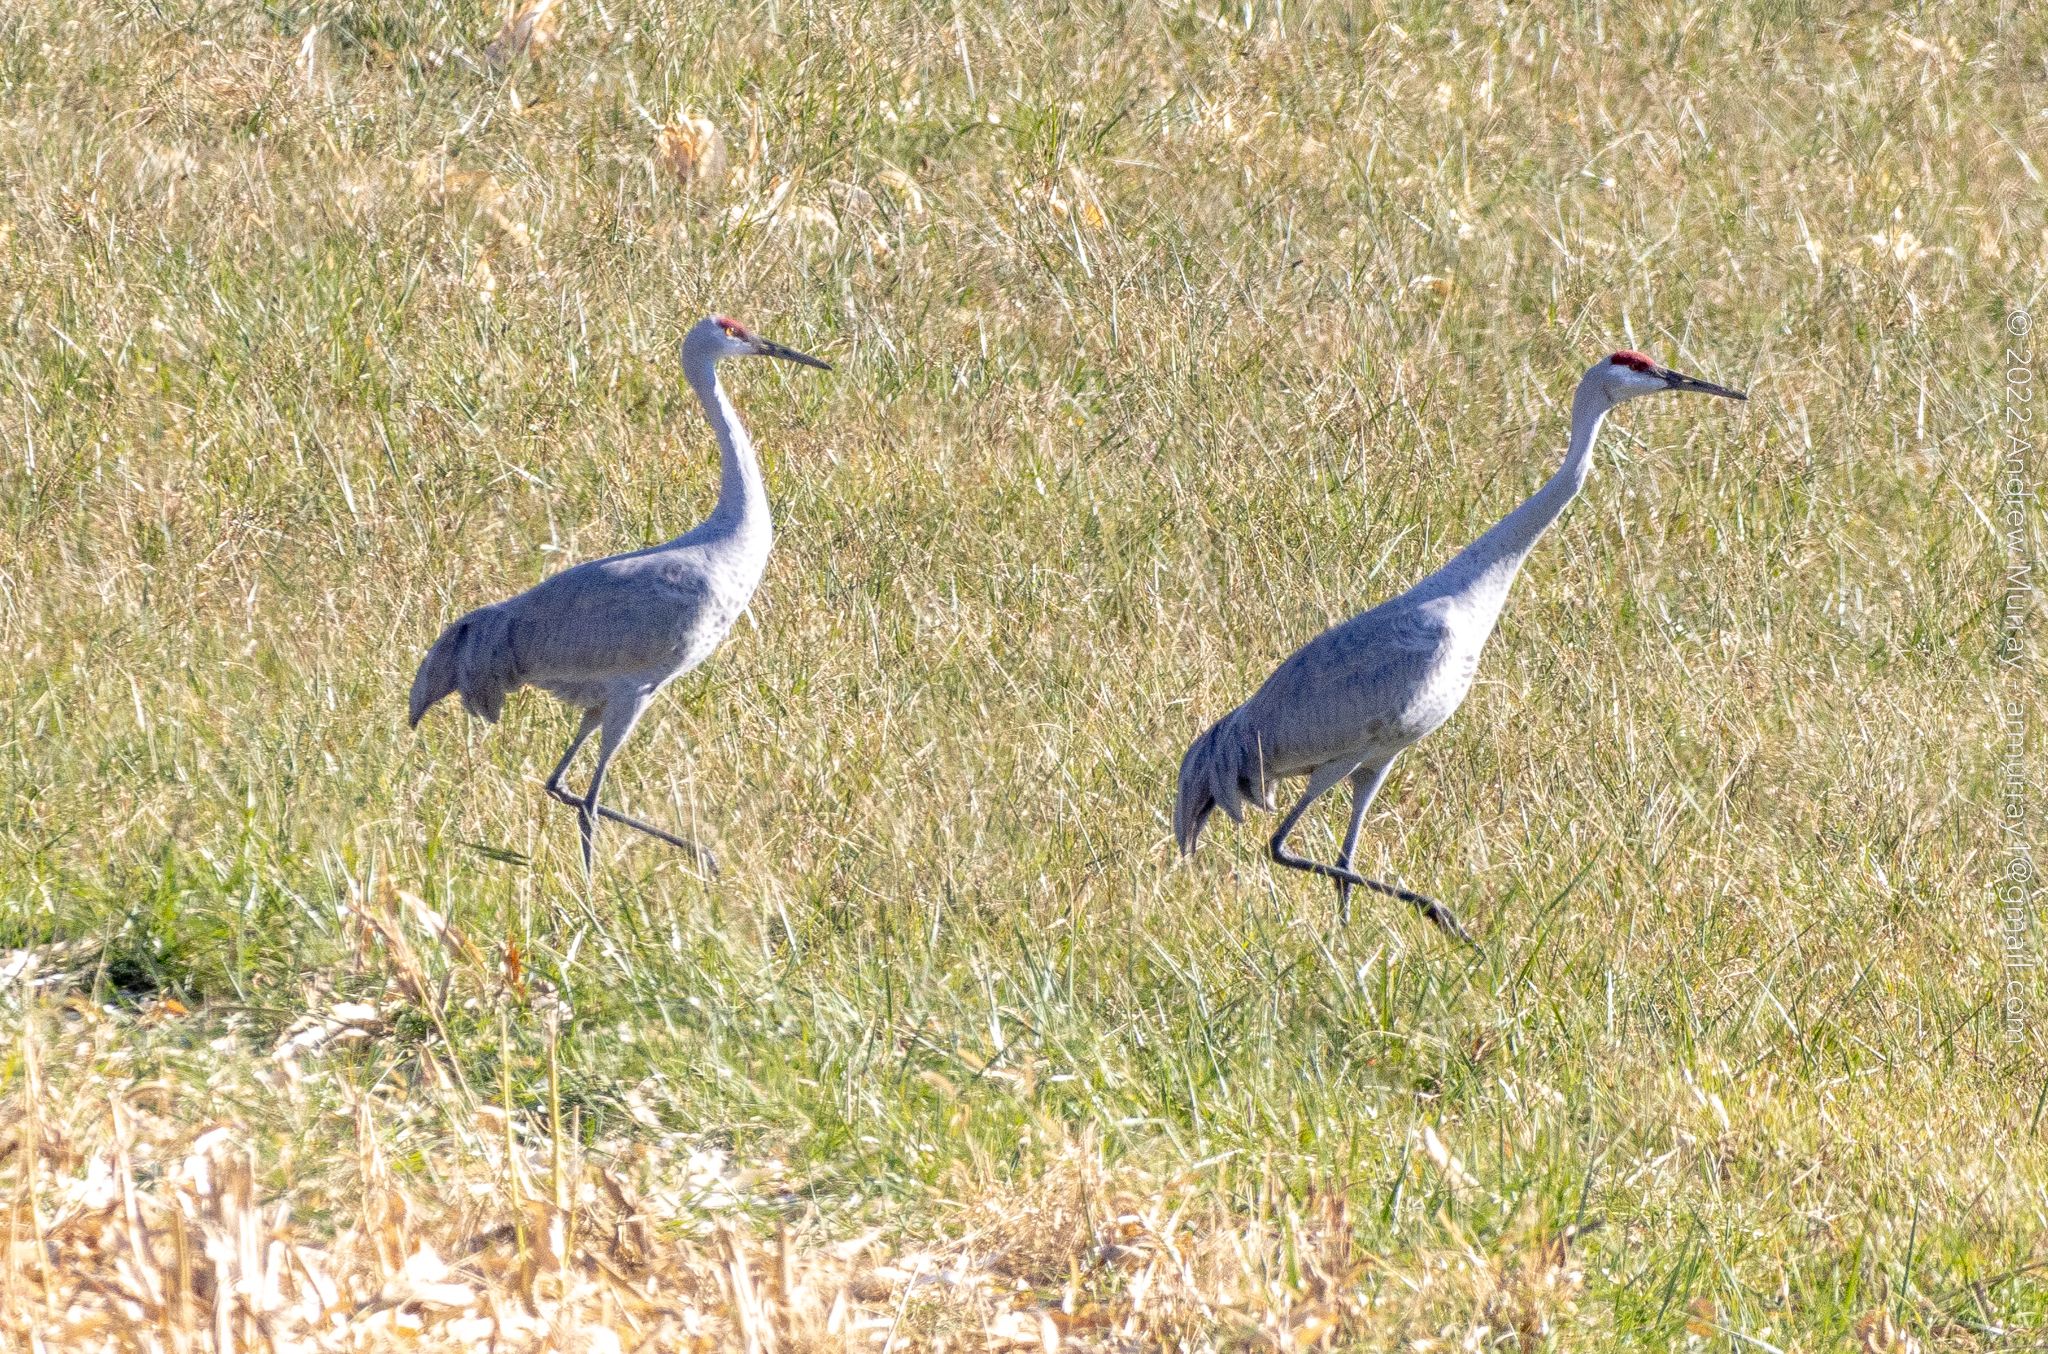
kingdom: Animalia
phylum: Chordata
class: Aves
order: Gruiformes
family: Gruidae
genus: Grus
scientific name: Grus canadensis
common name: Sandhill crane
